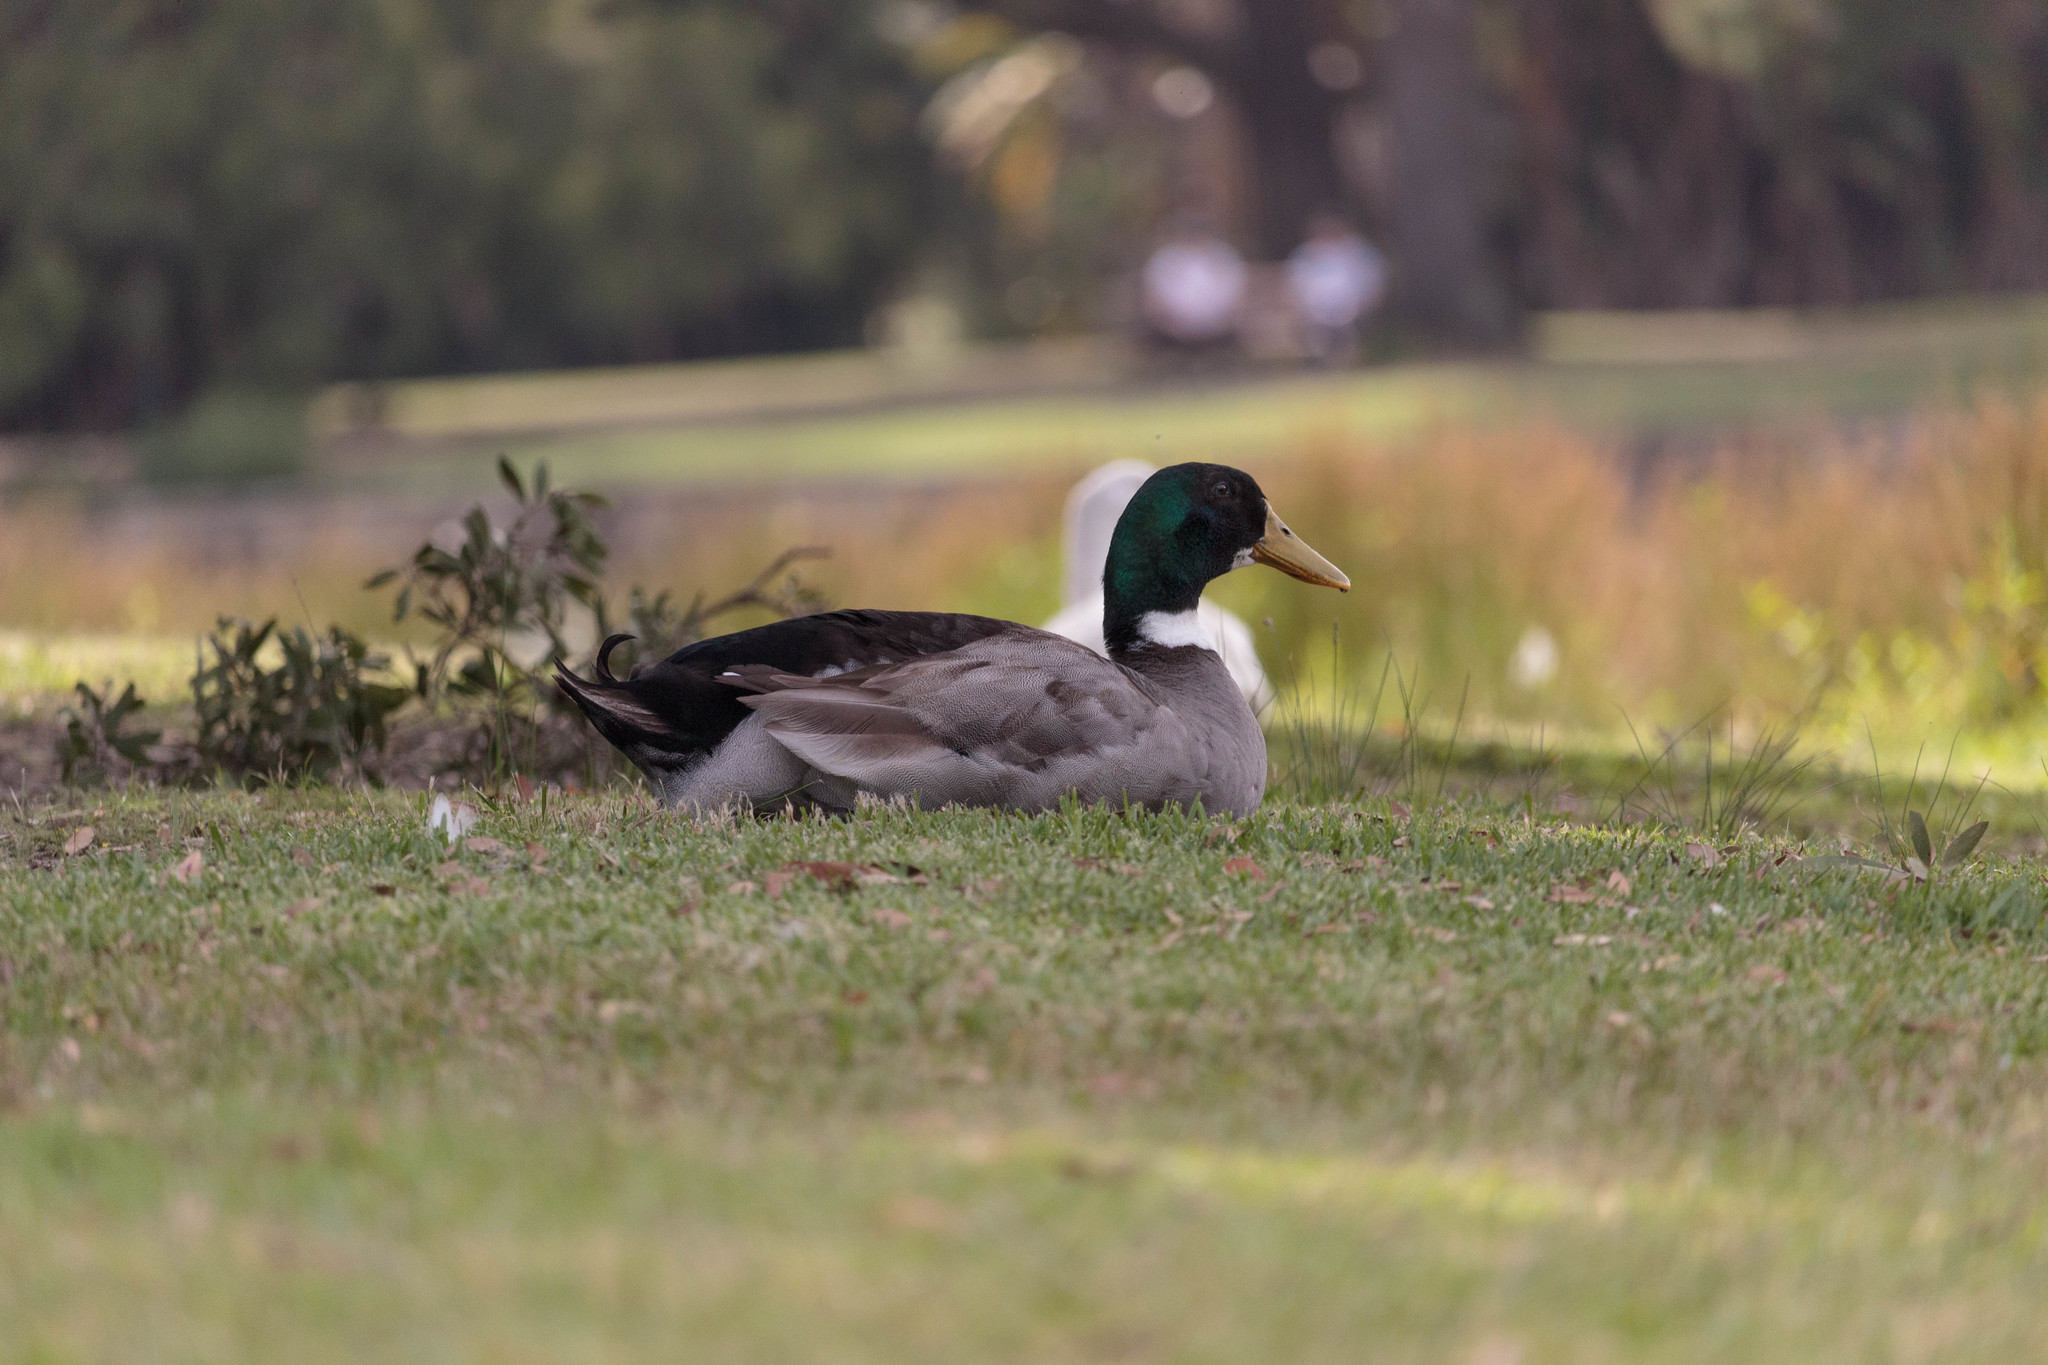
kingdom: Animalia
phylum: Chordata
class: Aves
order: Anseriformes
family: Anatidae
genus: Anas
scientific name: Anas platyrhynchos
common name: Mallard
